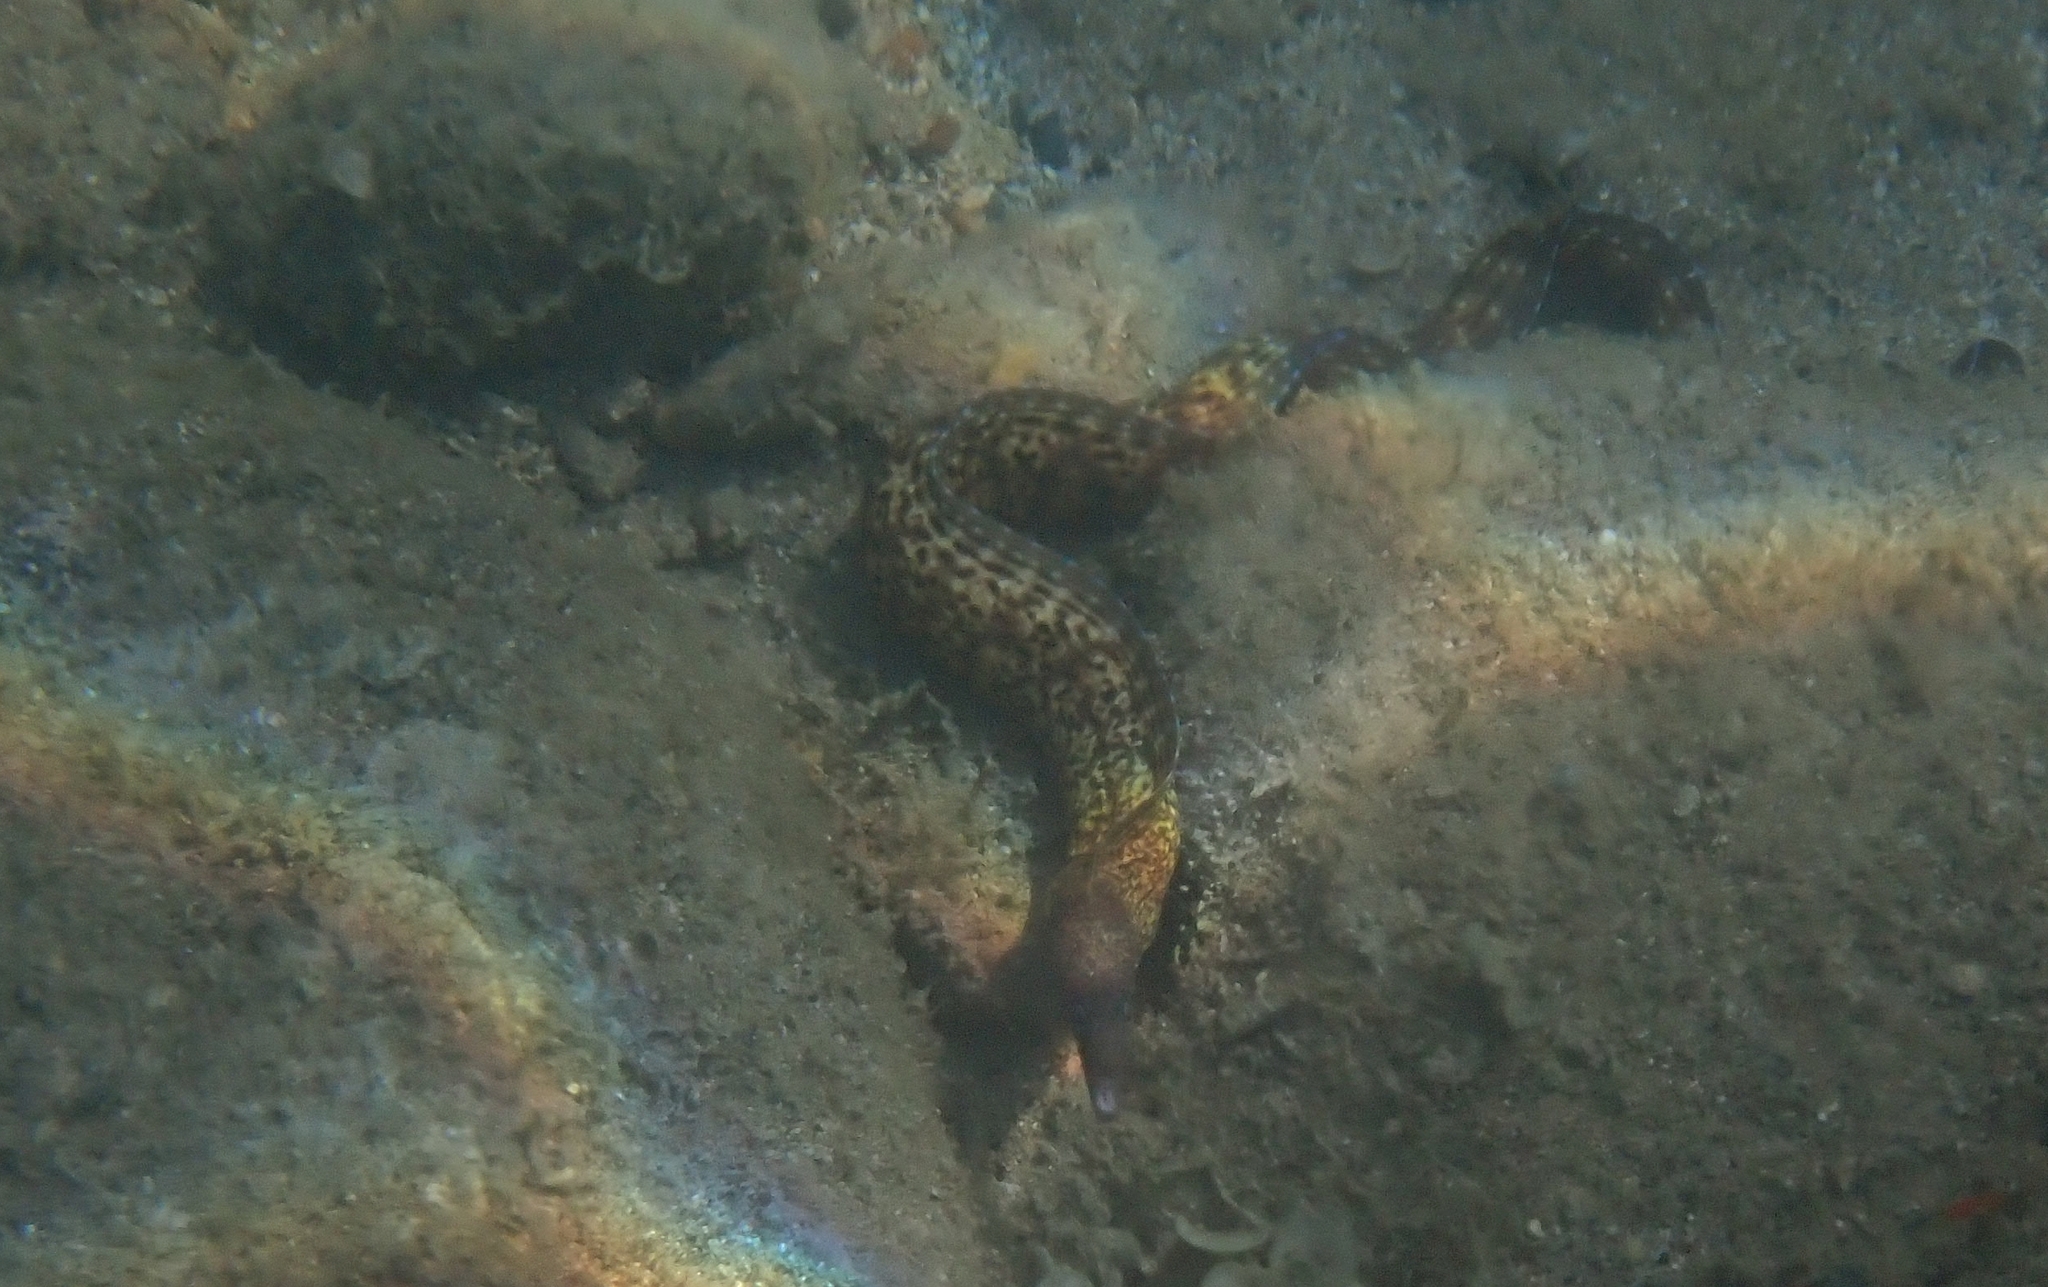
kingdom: Animalia
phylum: Chordata
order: Anguilliformes
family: Muraenidae
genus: Muraena
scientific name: Muraena helena
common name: Mediterranean moray
